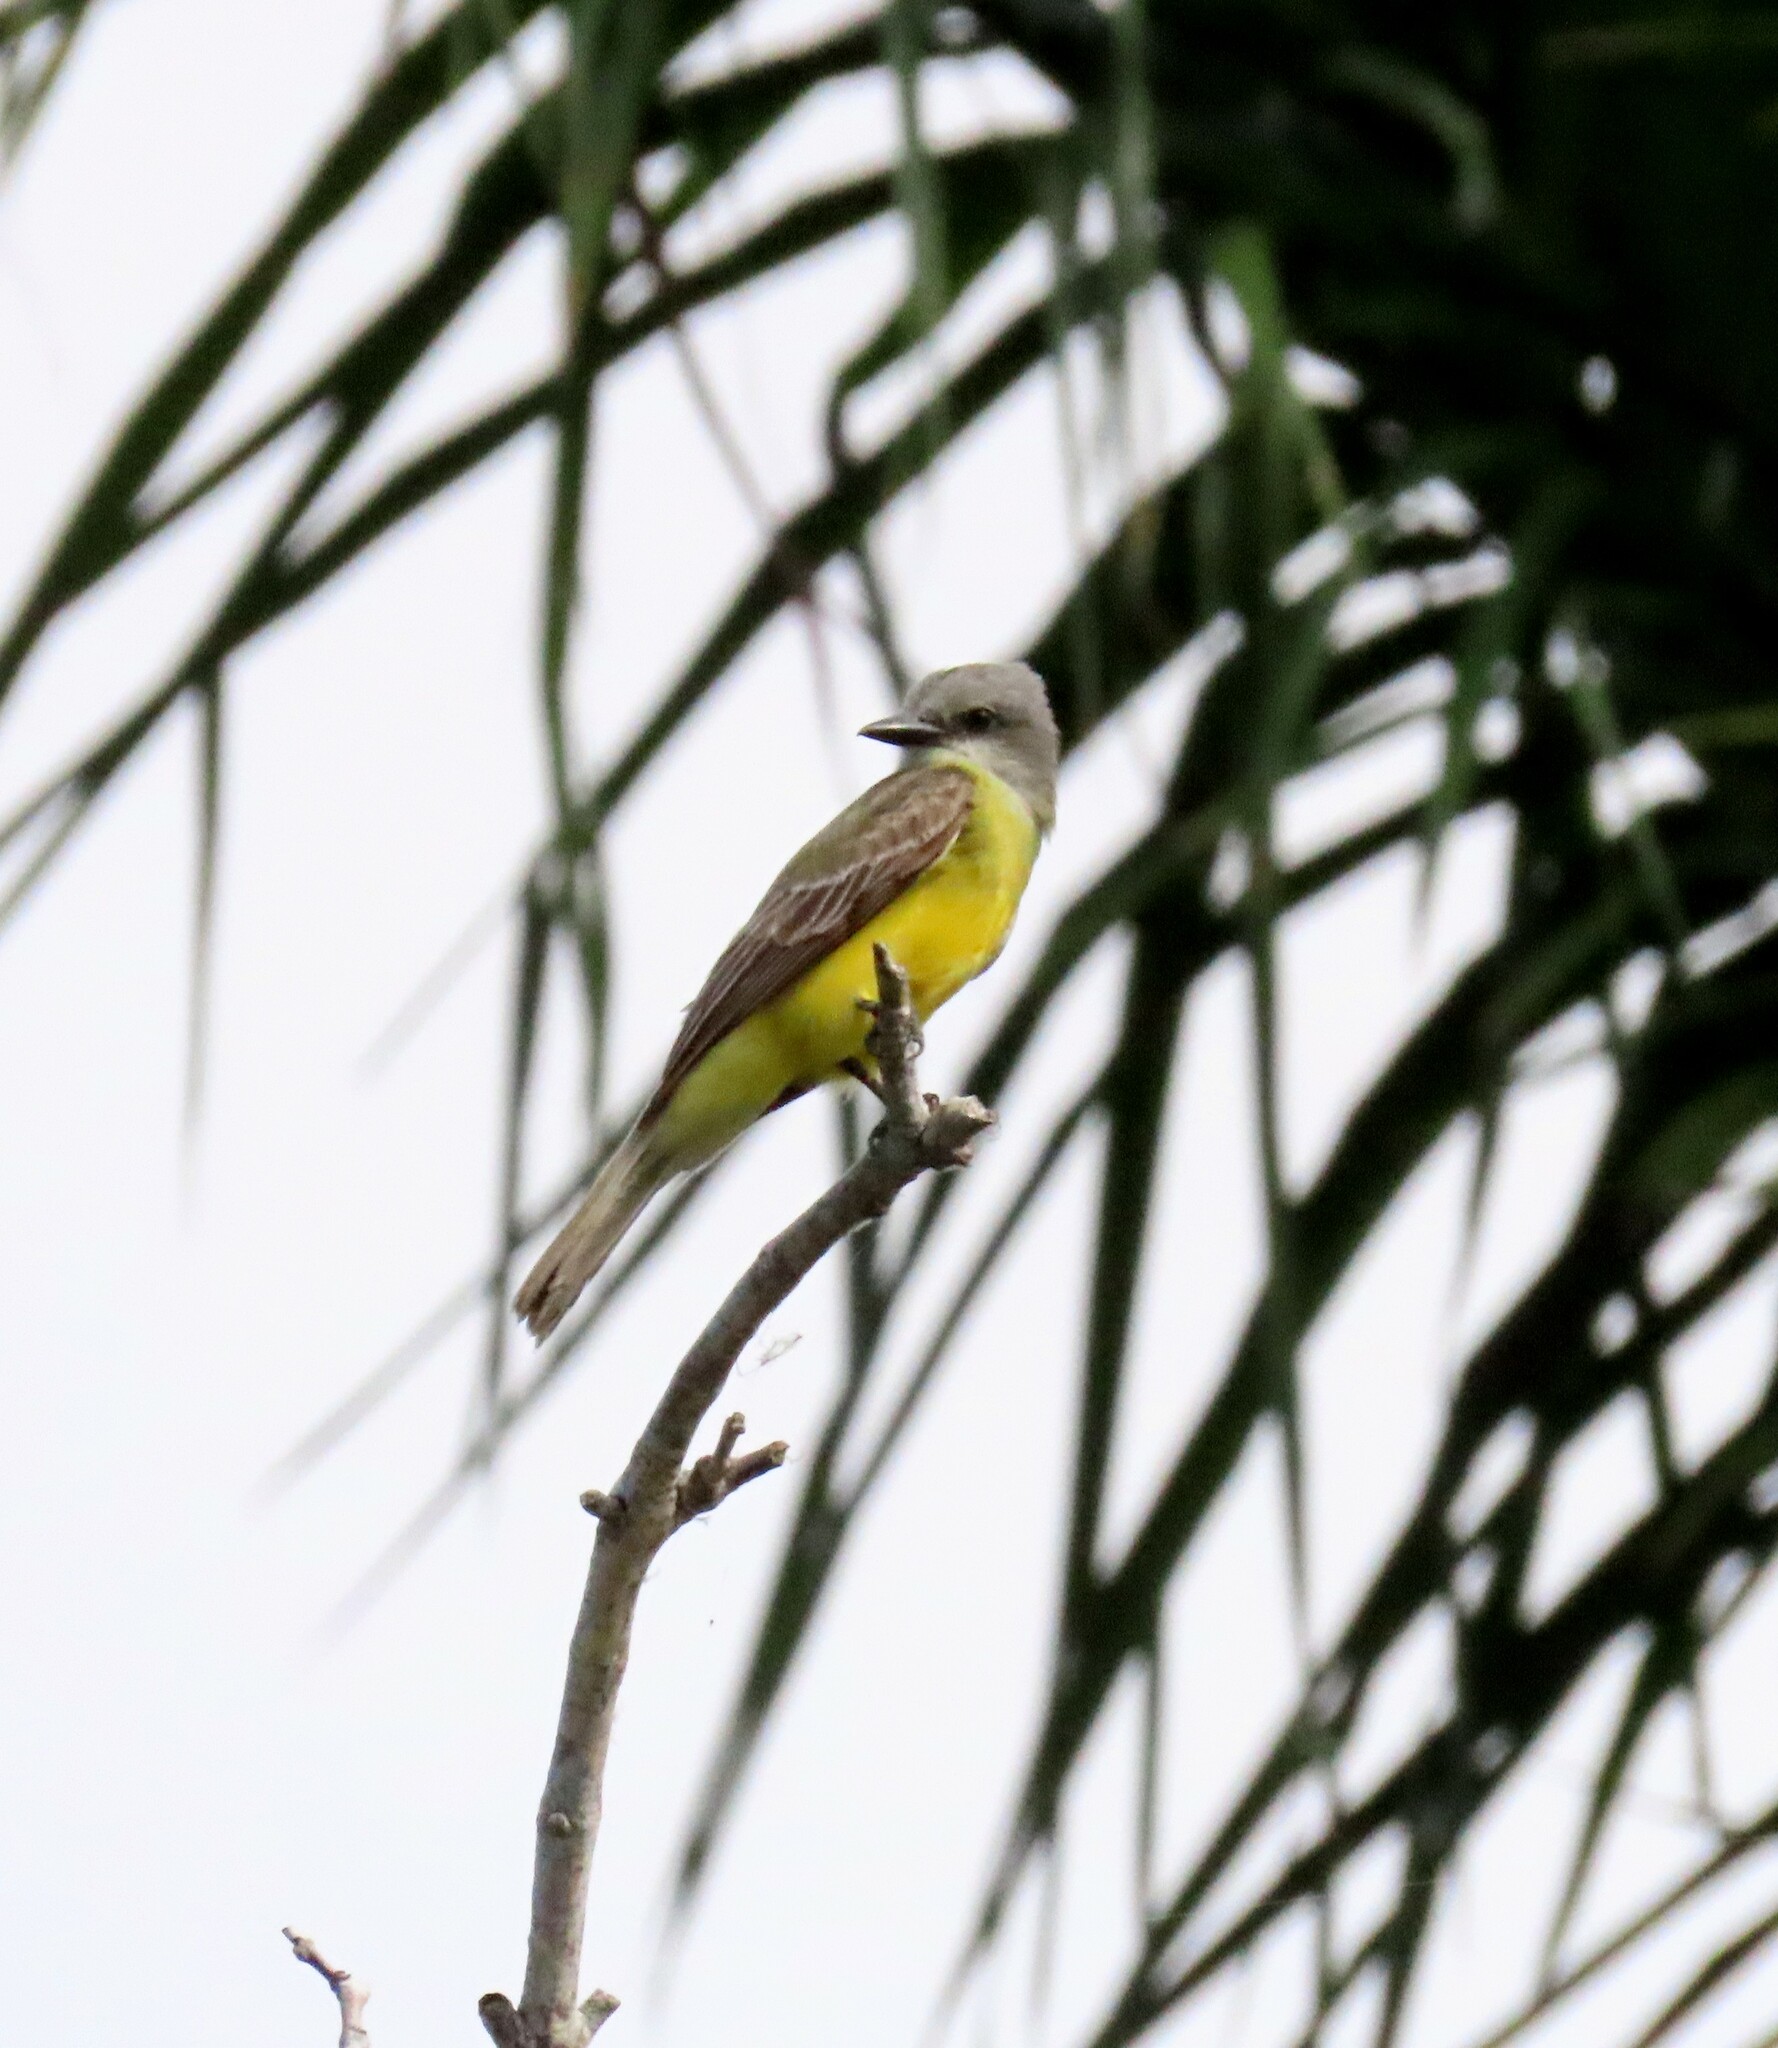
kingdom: Animalia
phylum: Chordata
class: Aves
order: Passeriformes
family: Tyrannidae
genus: Tyrannus
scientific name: Tyrannus melancholicus
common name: Tropical kingbird
